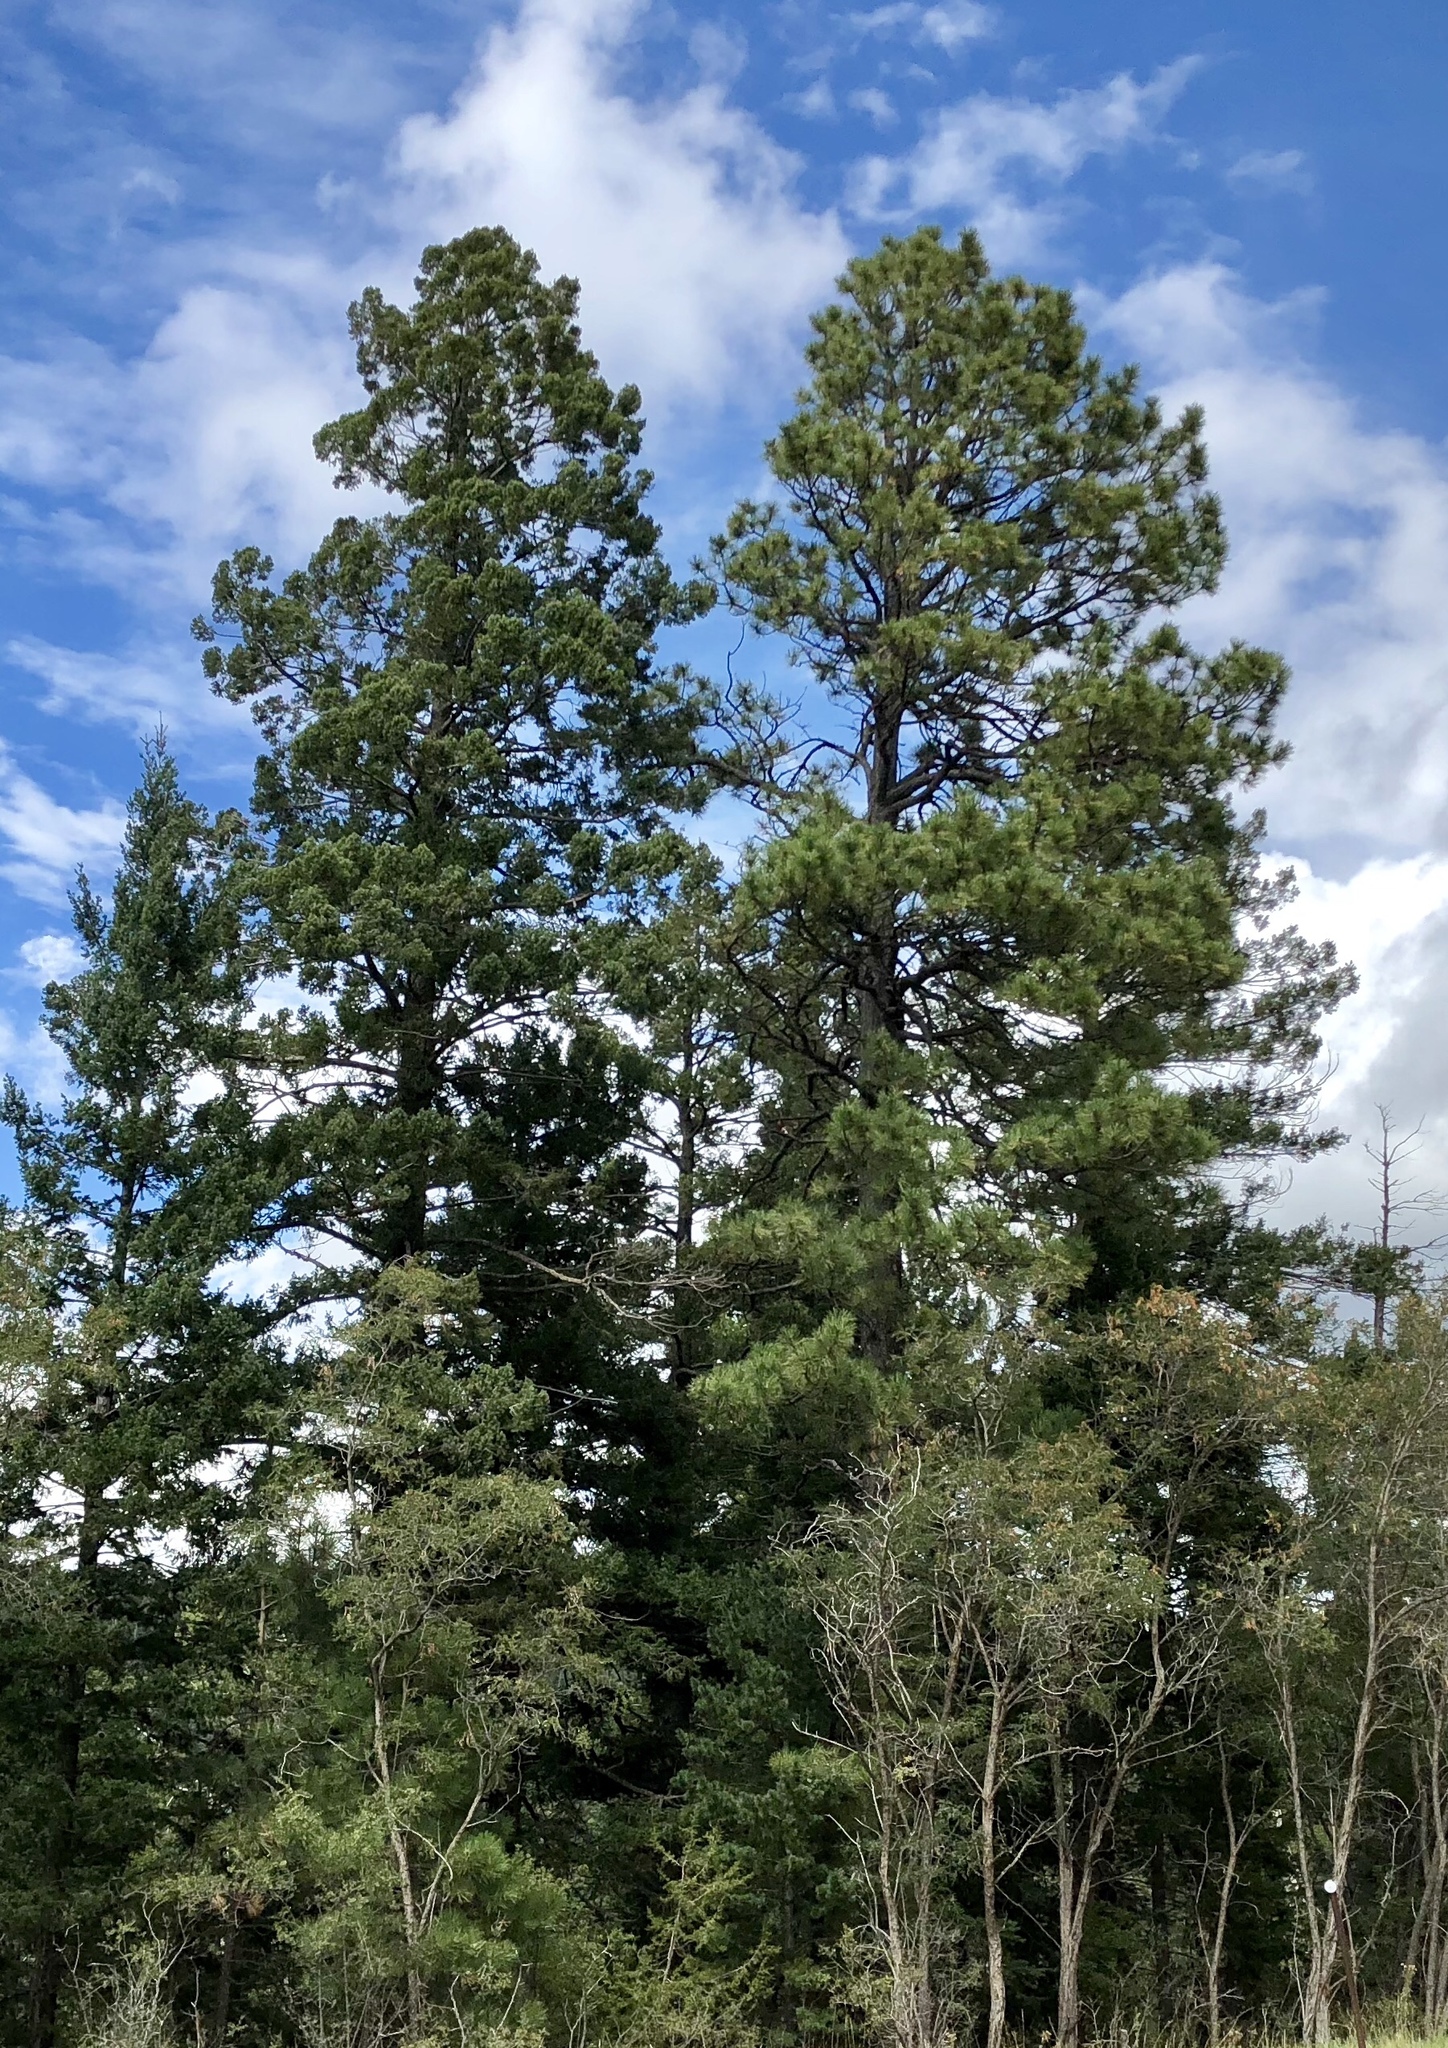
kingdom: Plantae
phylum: Tracheophyta
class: Pinopsida
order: Pinales
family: Pinaceae
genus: Pinus
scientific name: Pinus ponderosa
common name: Western yellow-pine
